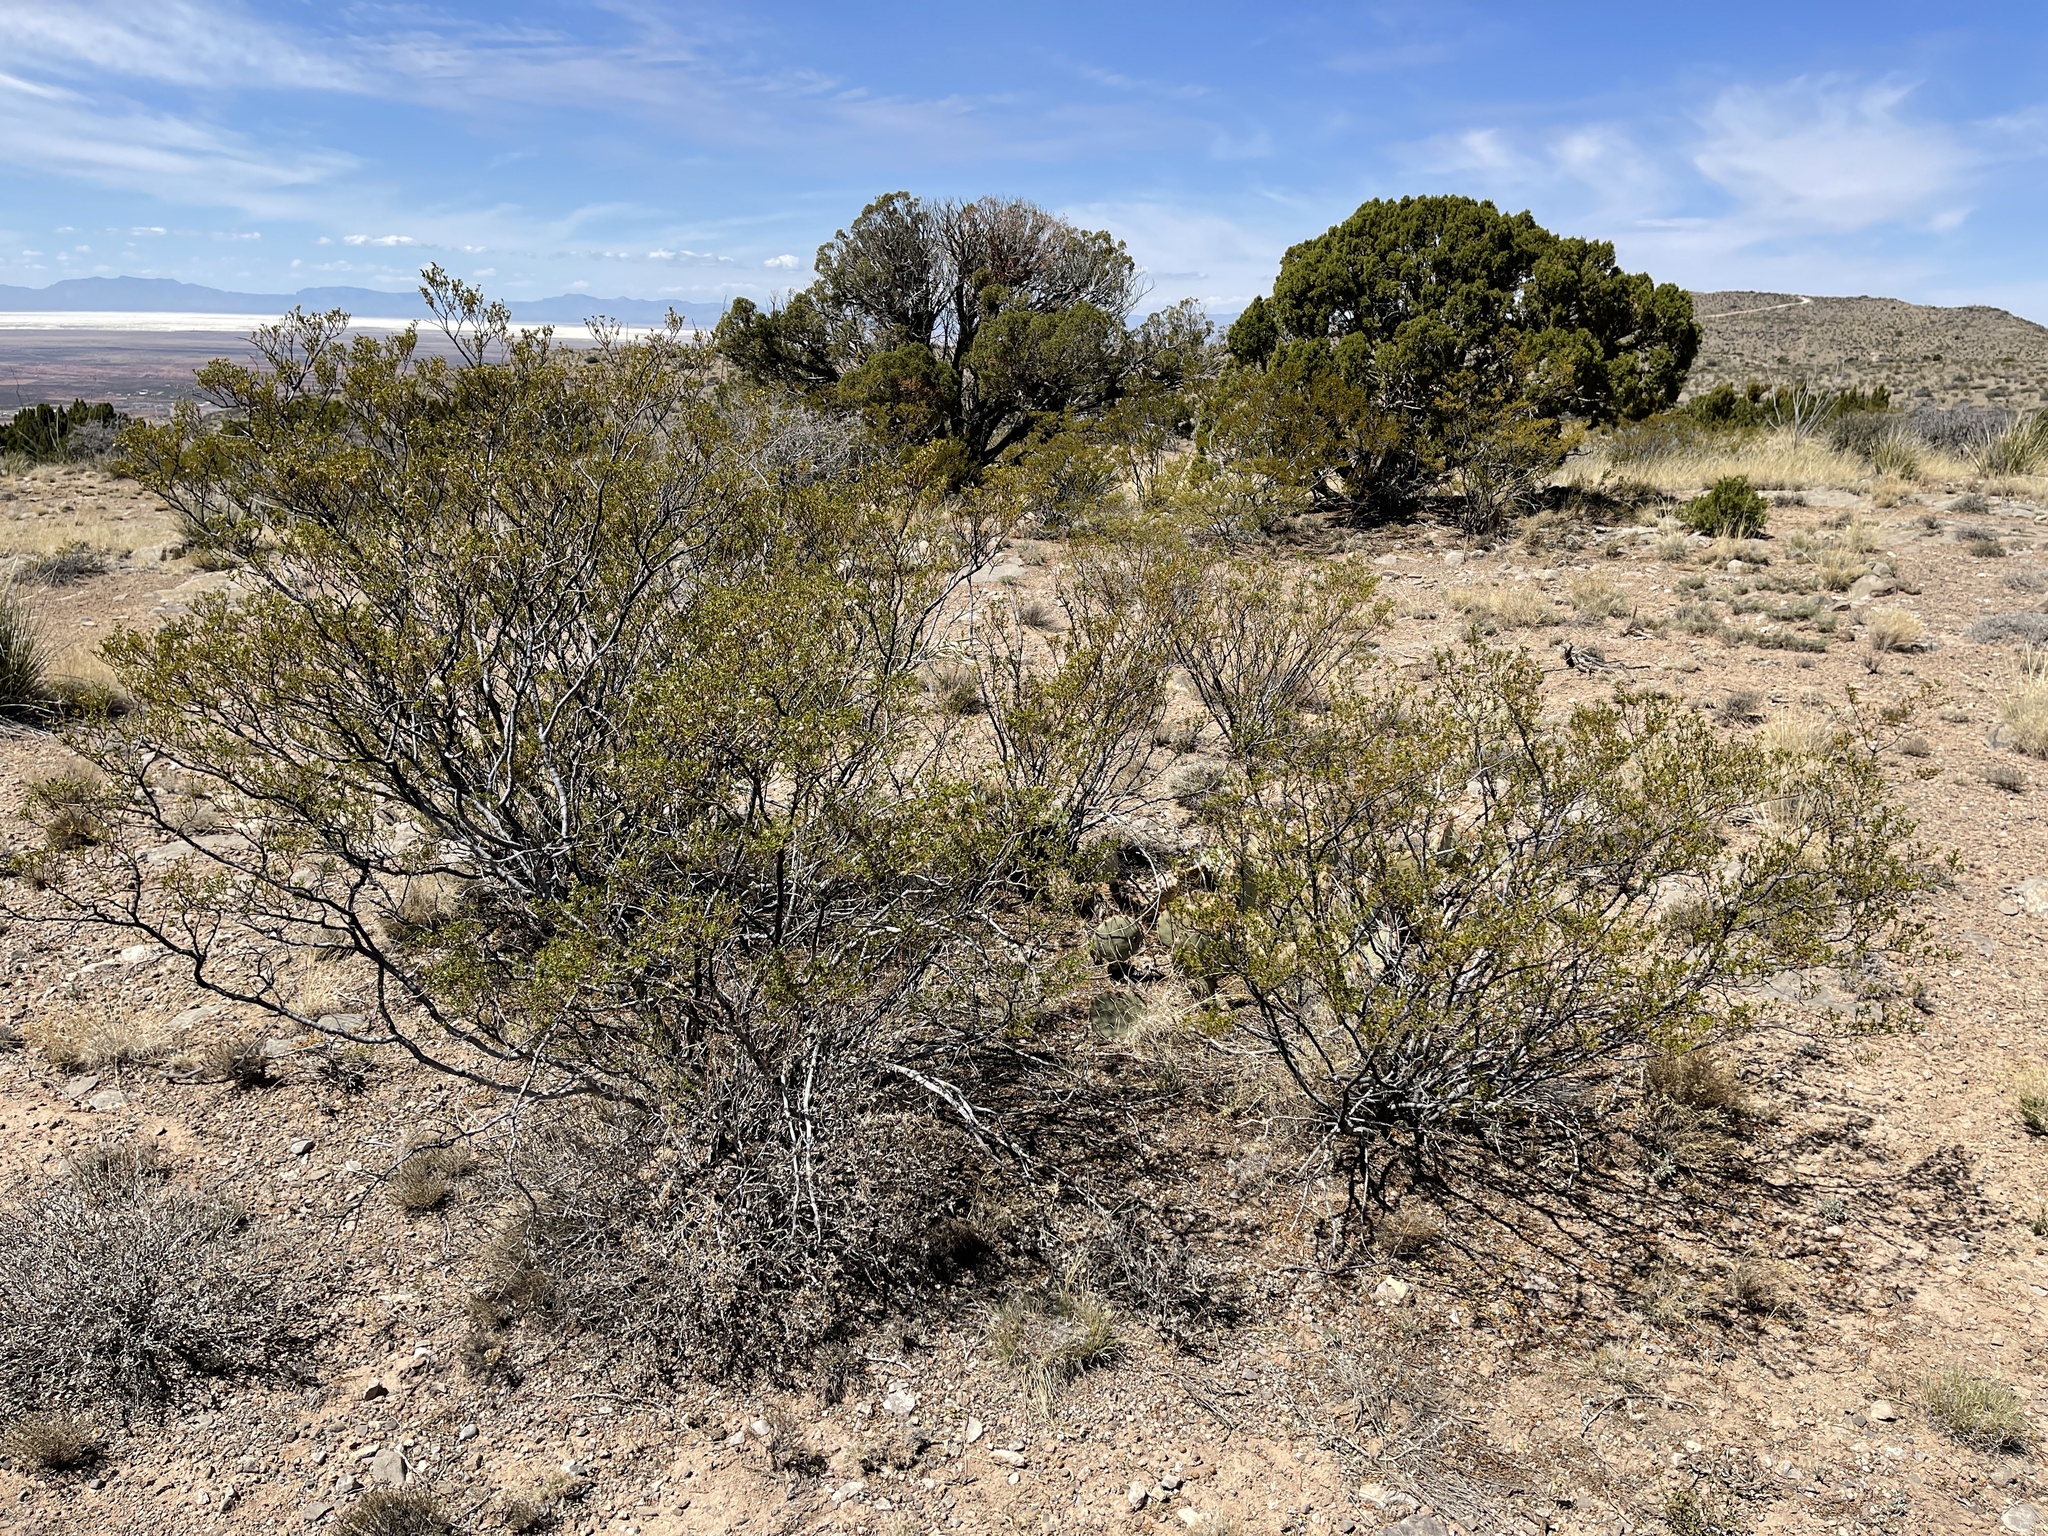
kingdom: Plantae
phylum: Tracheophyta
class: Magnoliopsida
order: Zygophyllales
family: Zygophyllaceae
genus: Larrea
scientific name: Larrea tridentata
